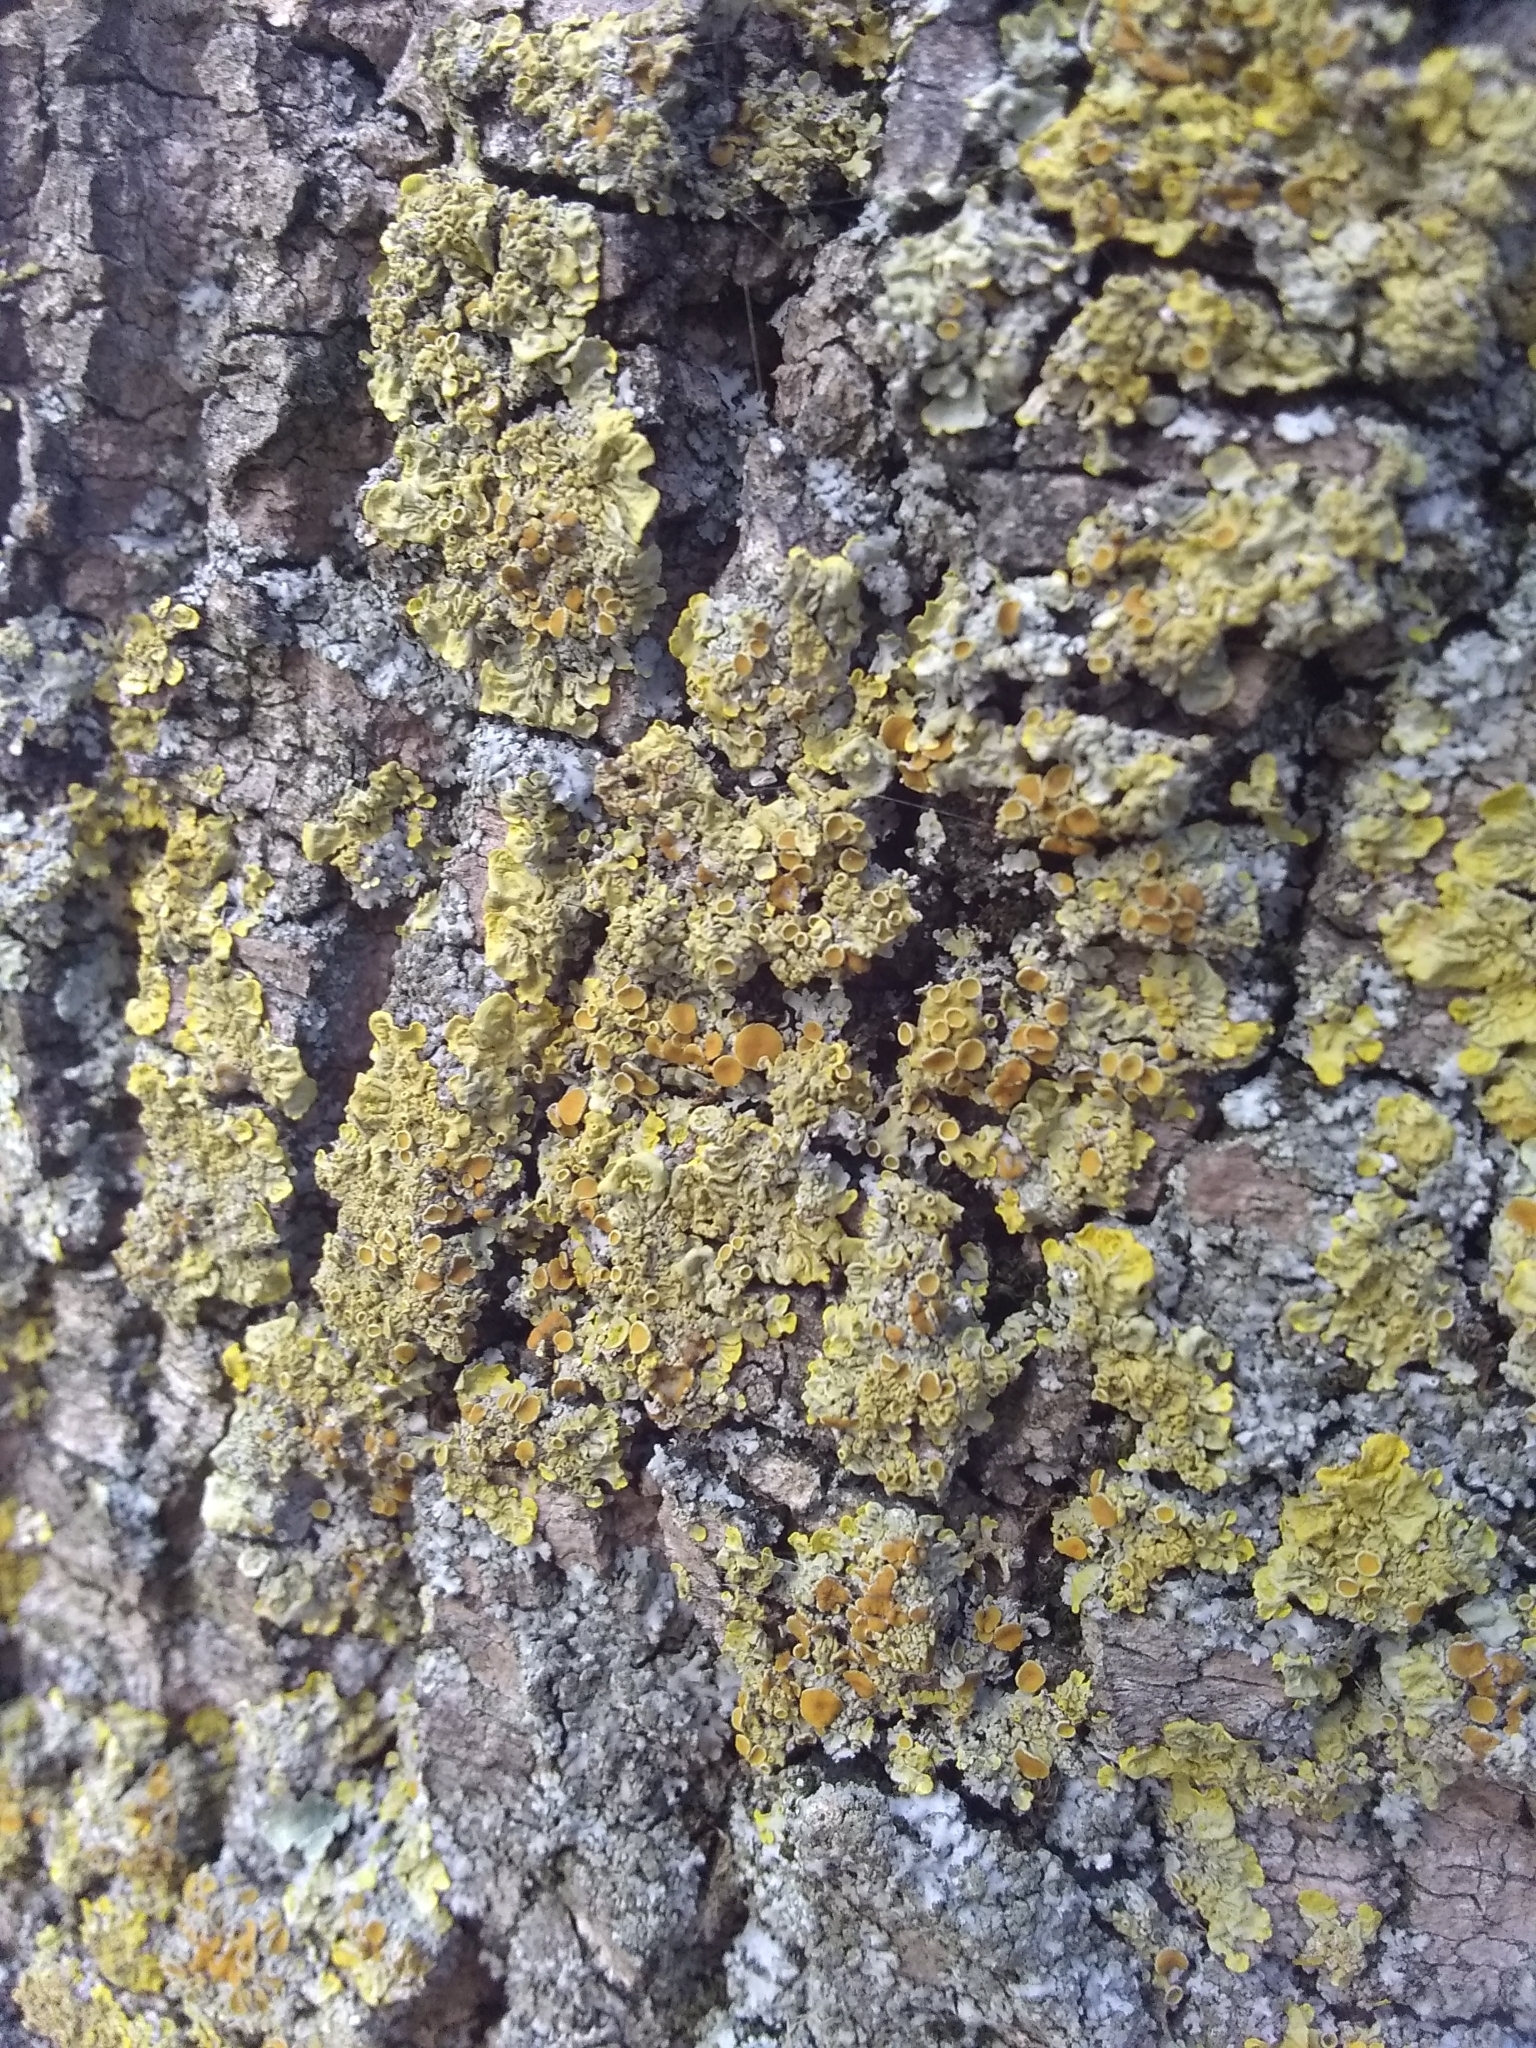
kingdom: Fungi
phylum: Ascomycota
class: Lecanoromycetes
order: Teloschistales
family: Teloschistaceae
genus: Xanthoria
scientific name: Xanthoria parietina
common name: Common orange lichen
